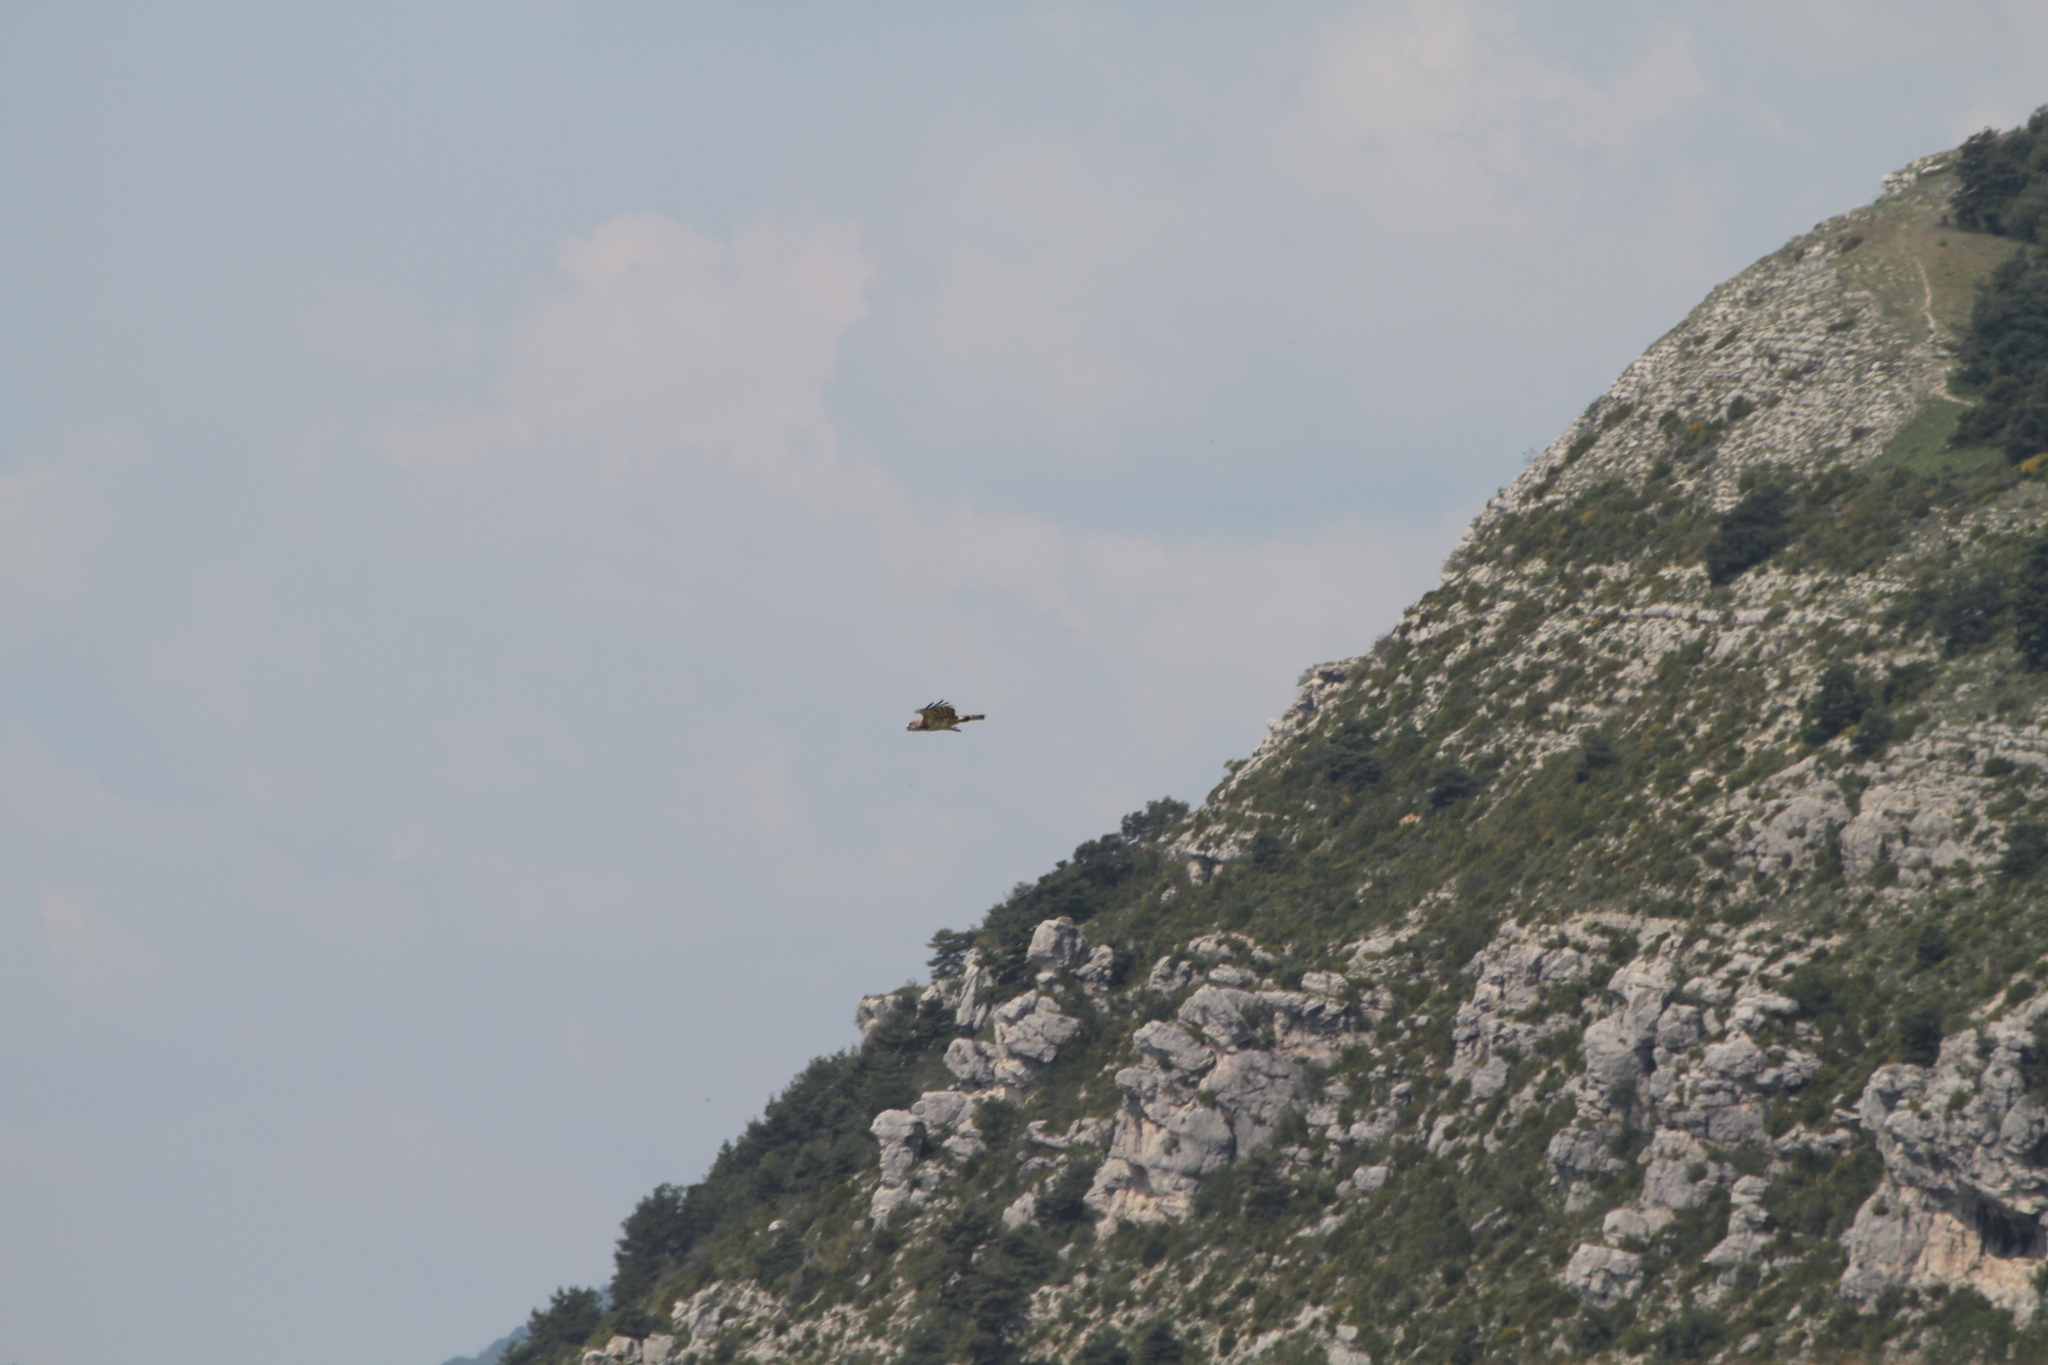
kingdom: Animalia
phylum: Chordata
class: Aves
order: Accipitriformes
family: Accipitridae
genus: Circaetus
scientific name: Circaetus gallicus
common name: Short-toed snake eagle
